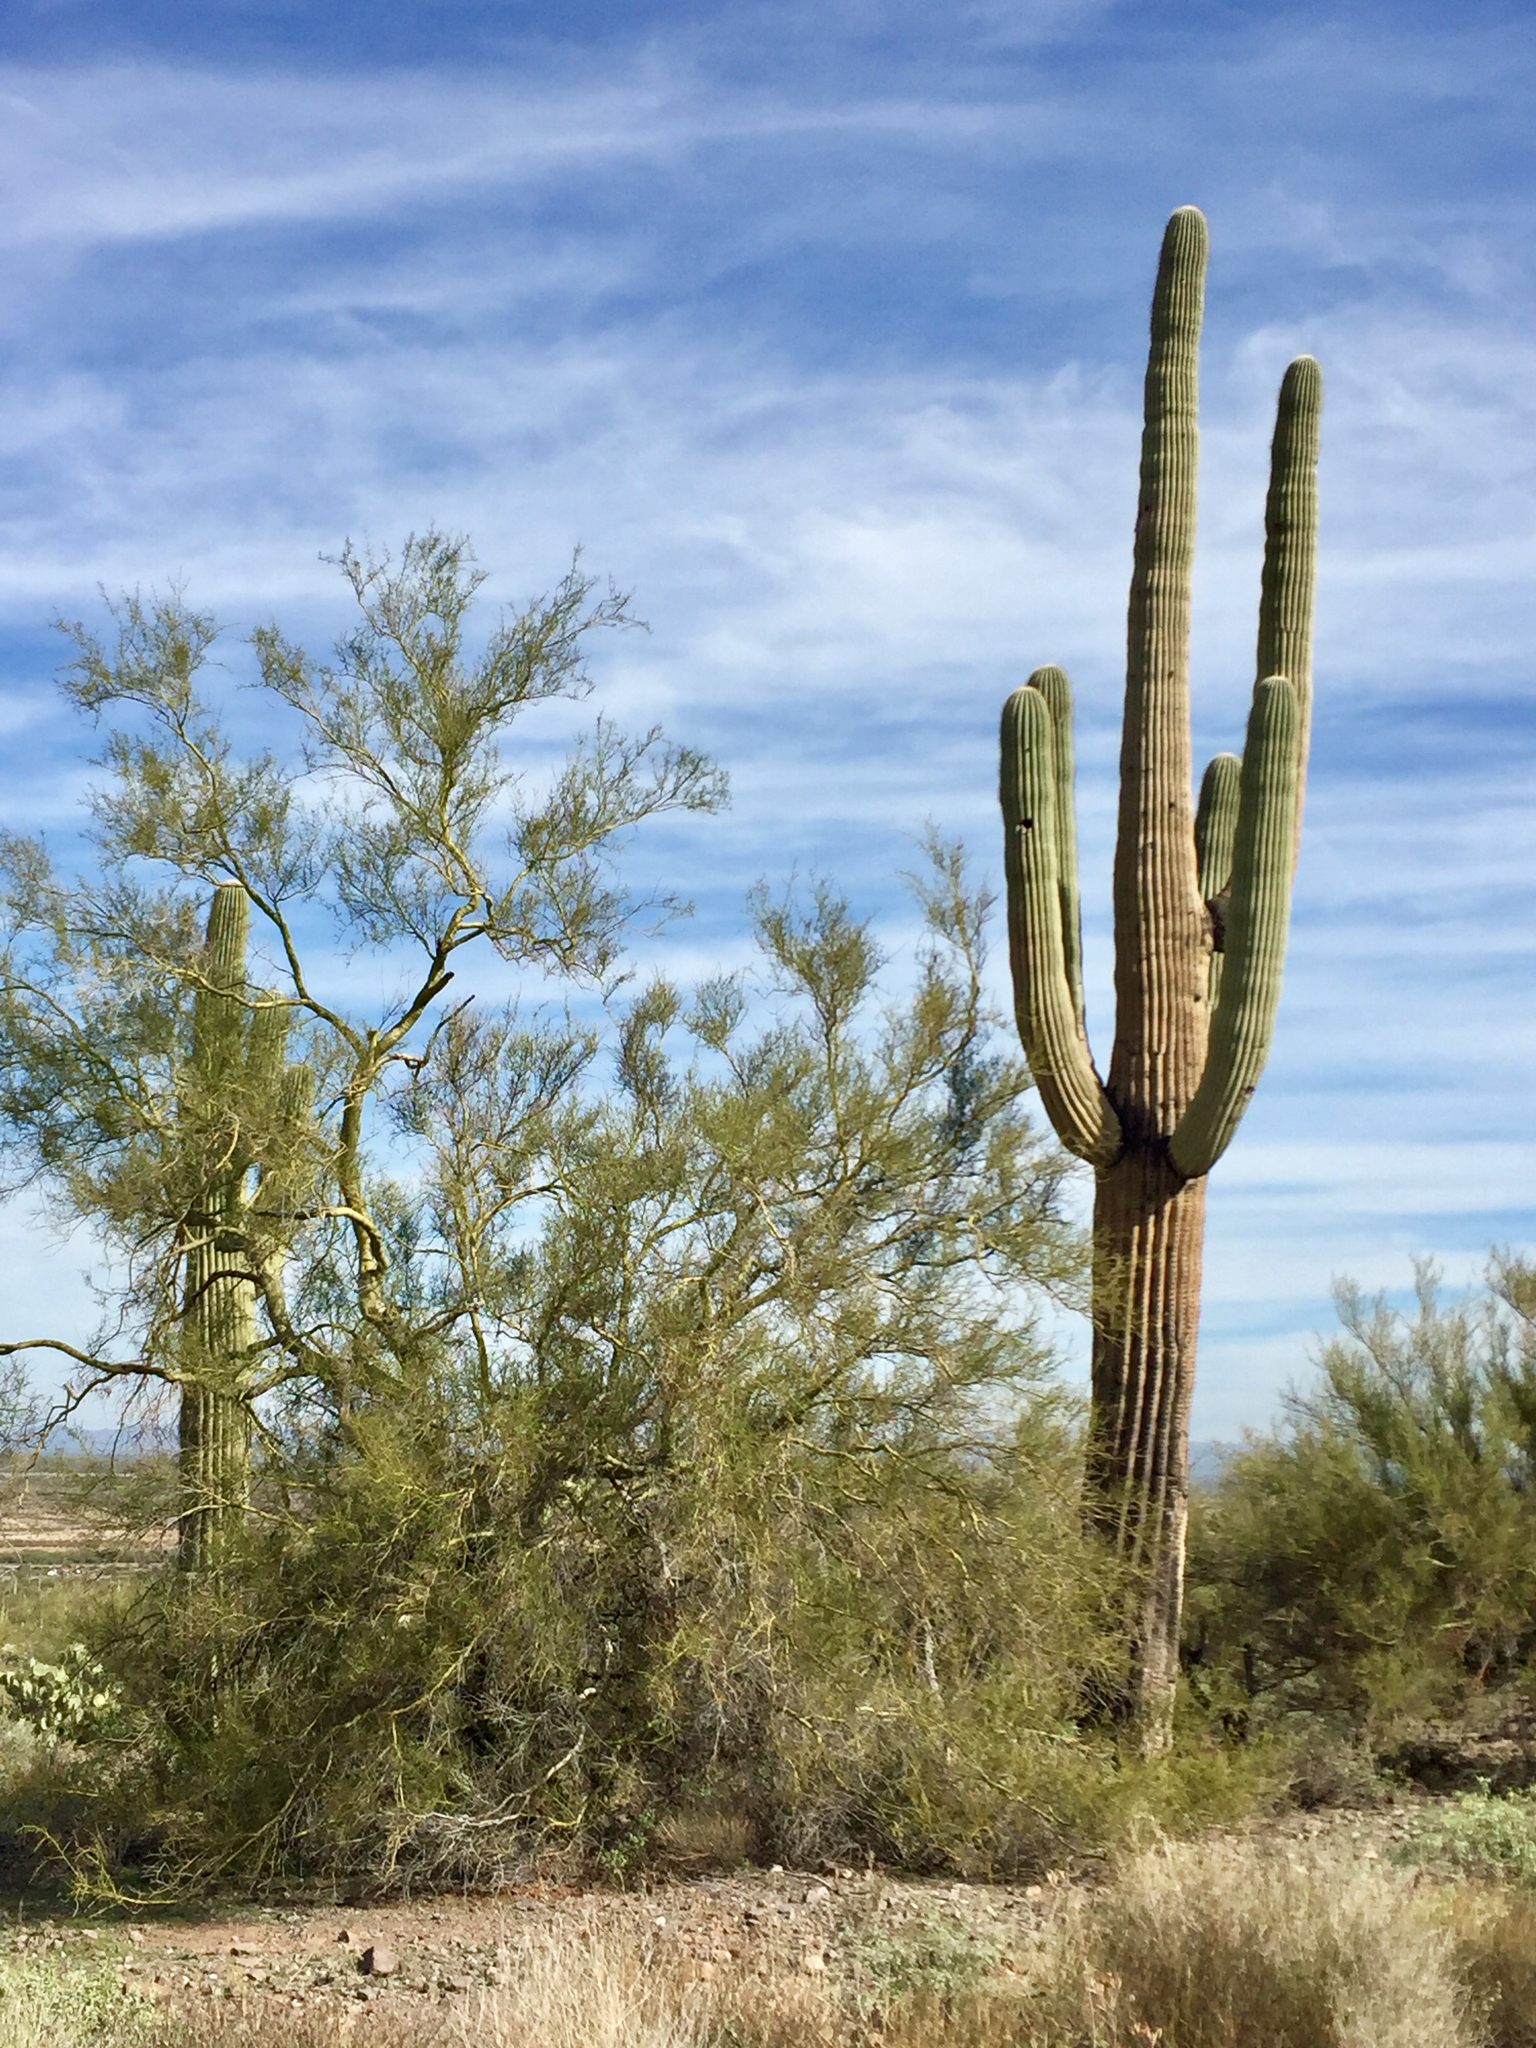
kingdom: Plantae
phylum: Tracheophyta
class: Magnoliopsida
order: Caryophyllales
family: Cactaceae
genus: Carnegiea
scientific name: Carnegiea gigantea
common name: Saguaro
